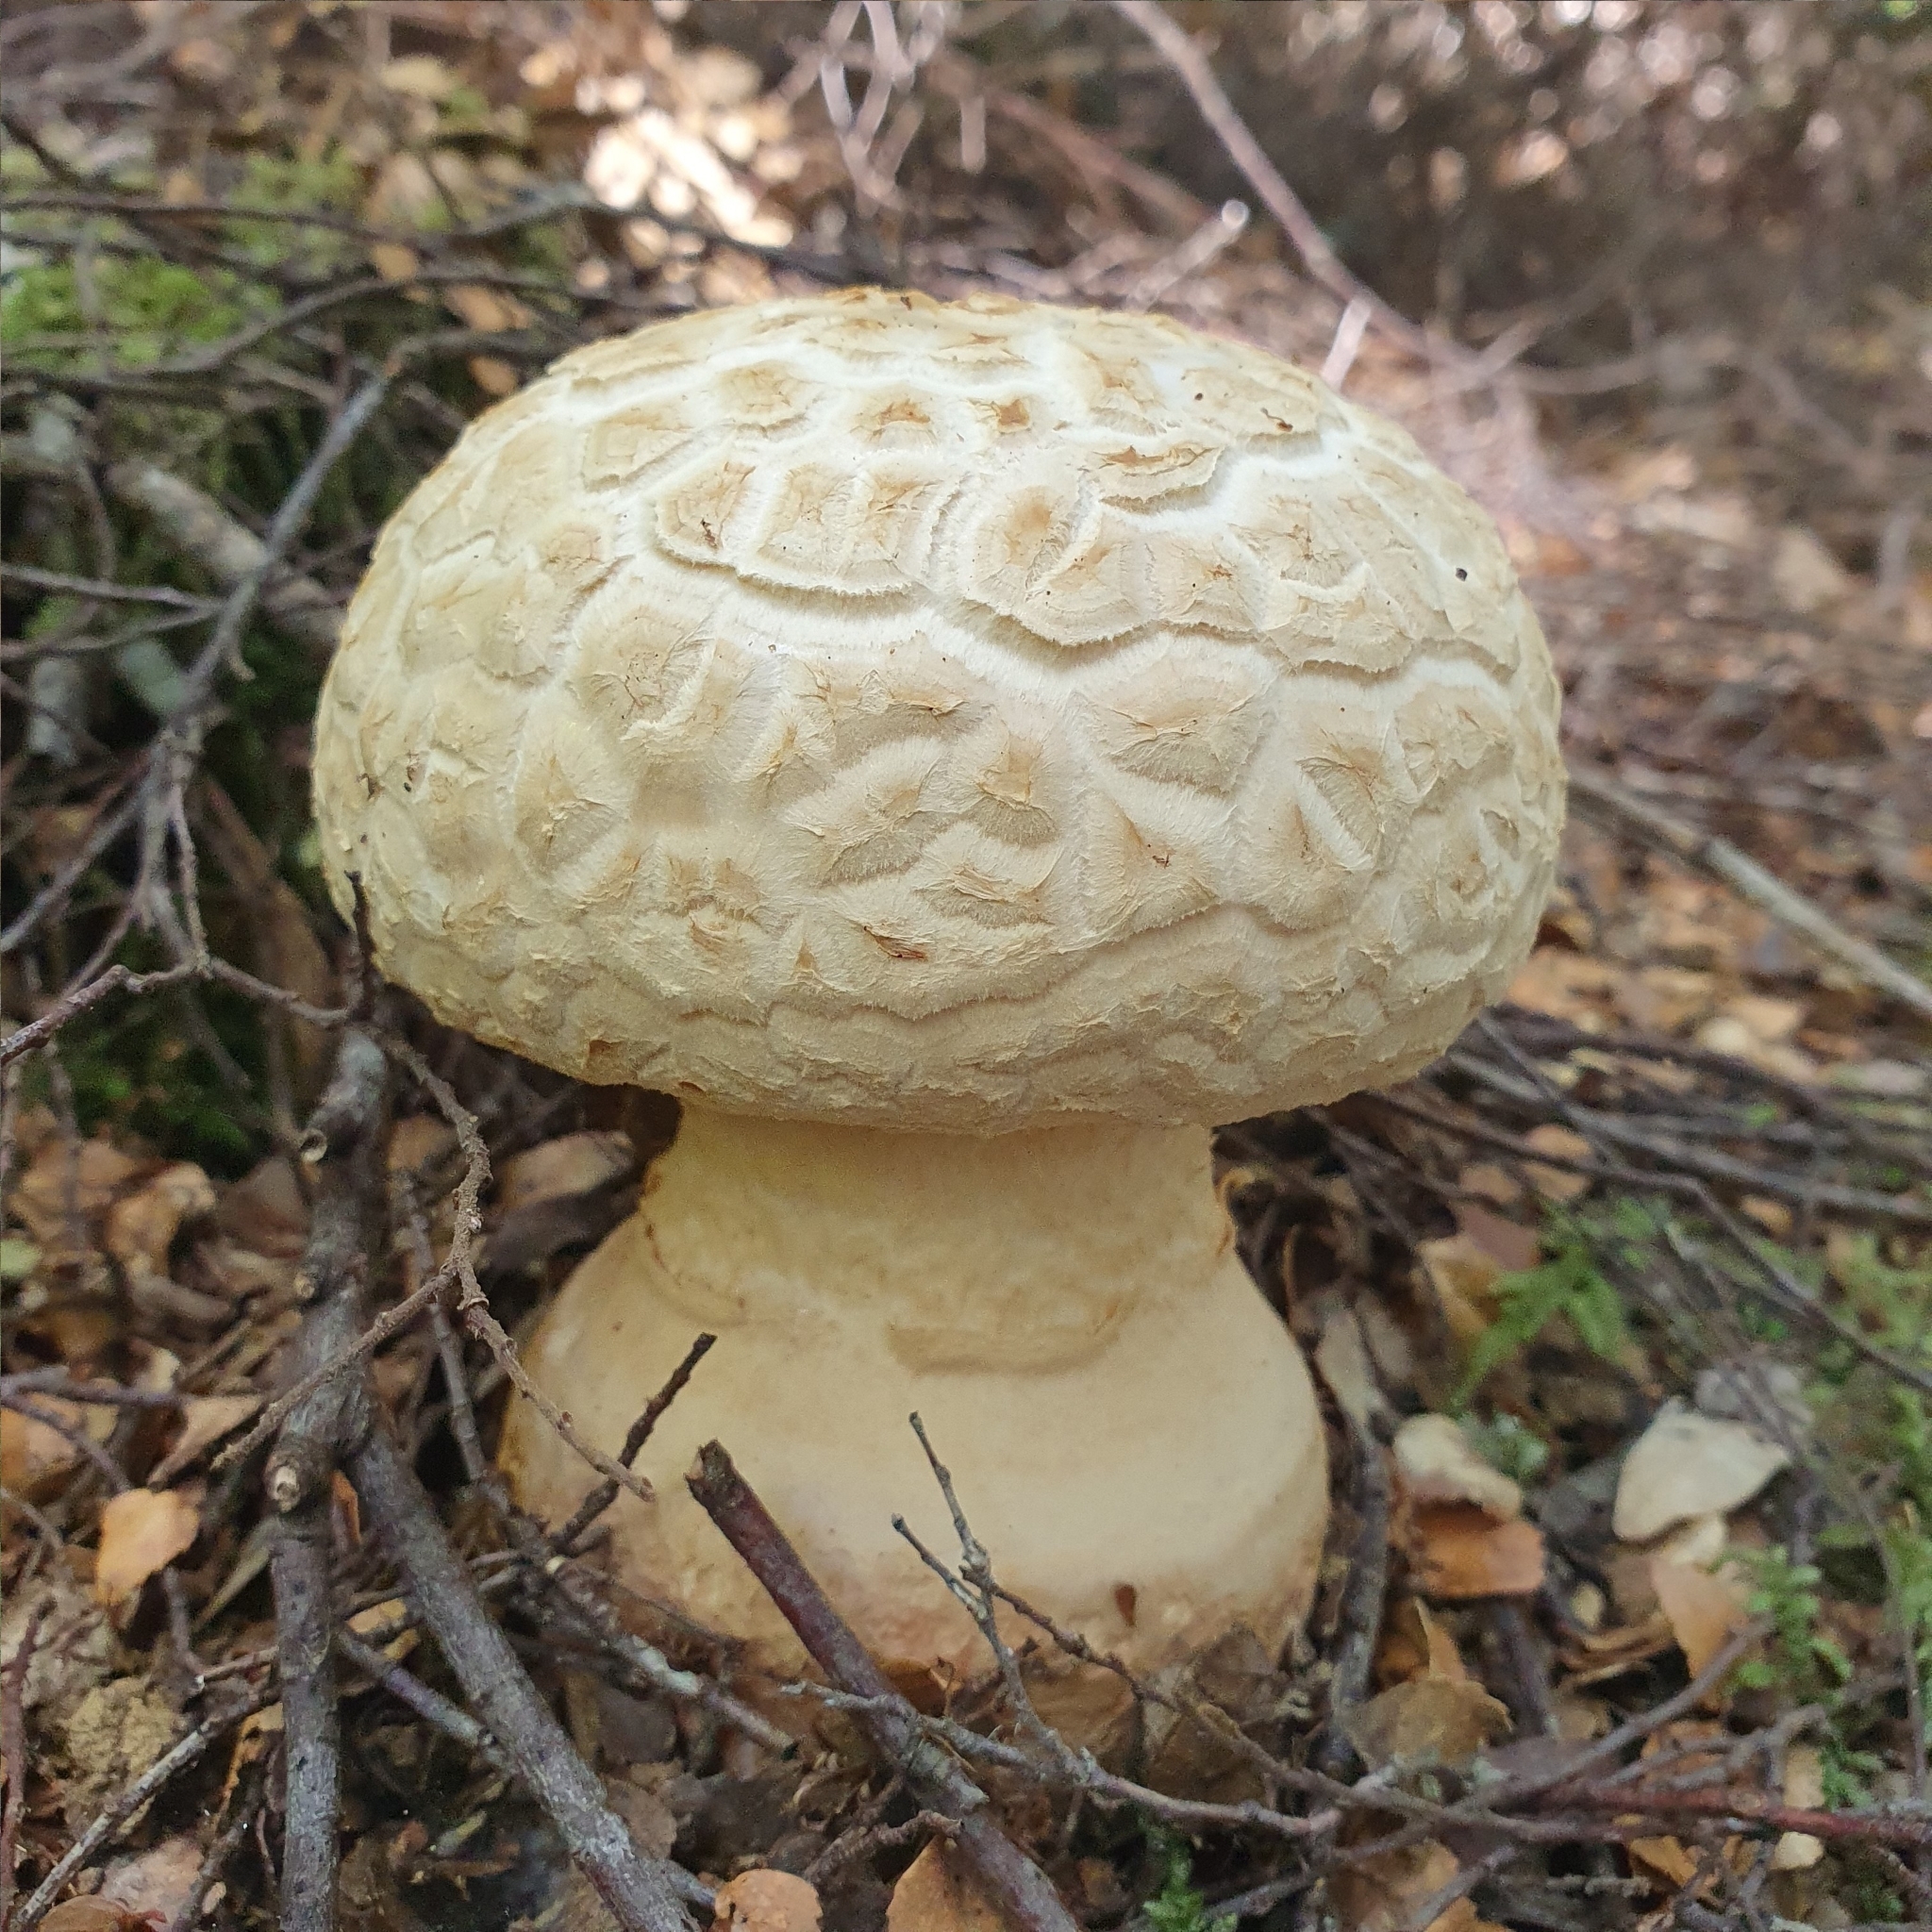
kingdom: Fungi
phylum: Basidiomycota
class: Agaricomycetes
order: Agaricales
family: Amanitaceae
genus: Amanita
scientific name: Amanita ochrophylloides
